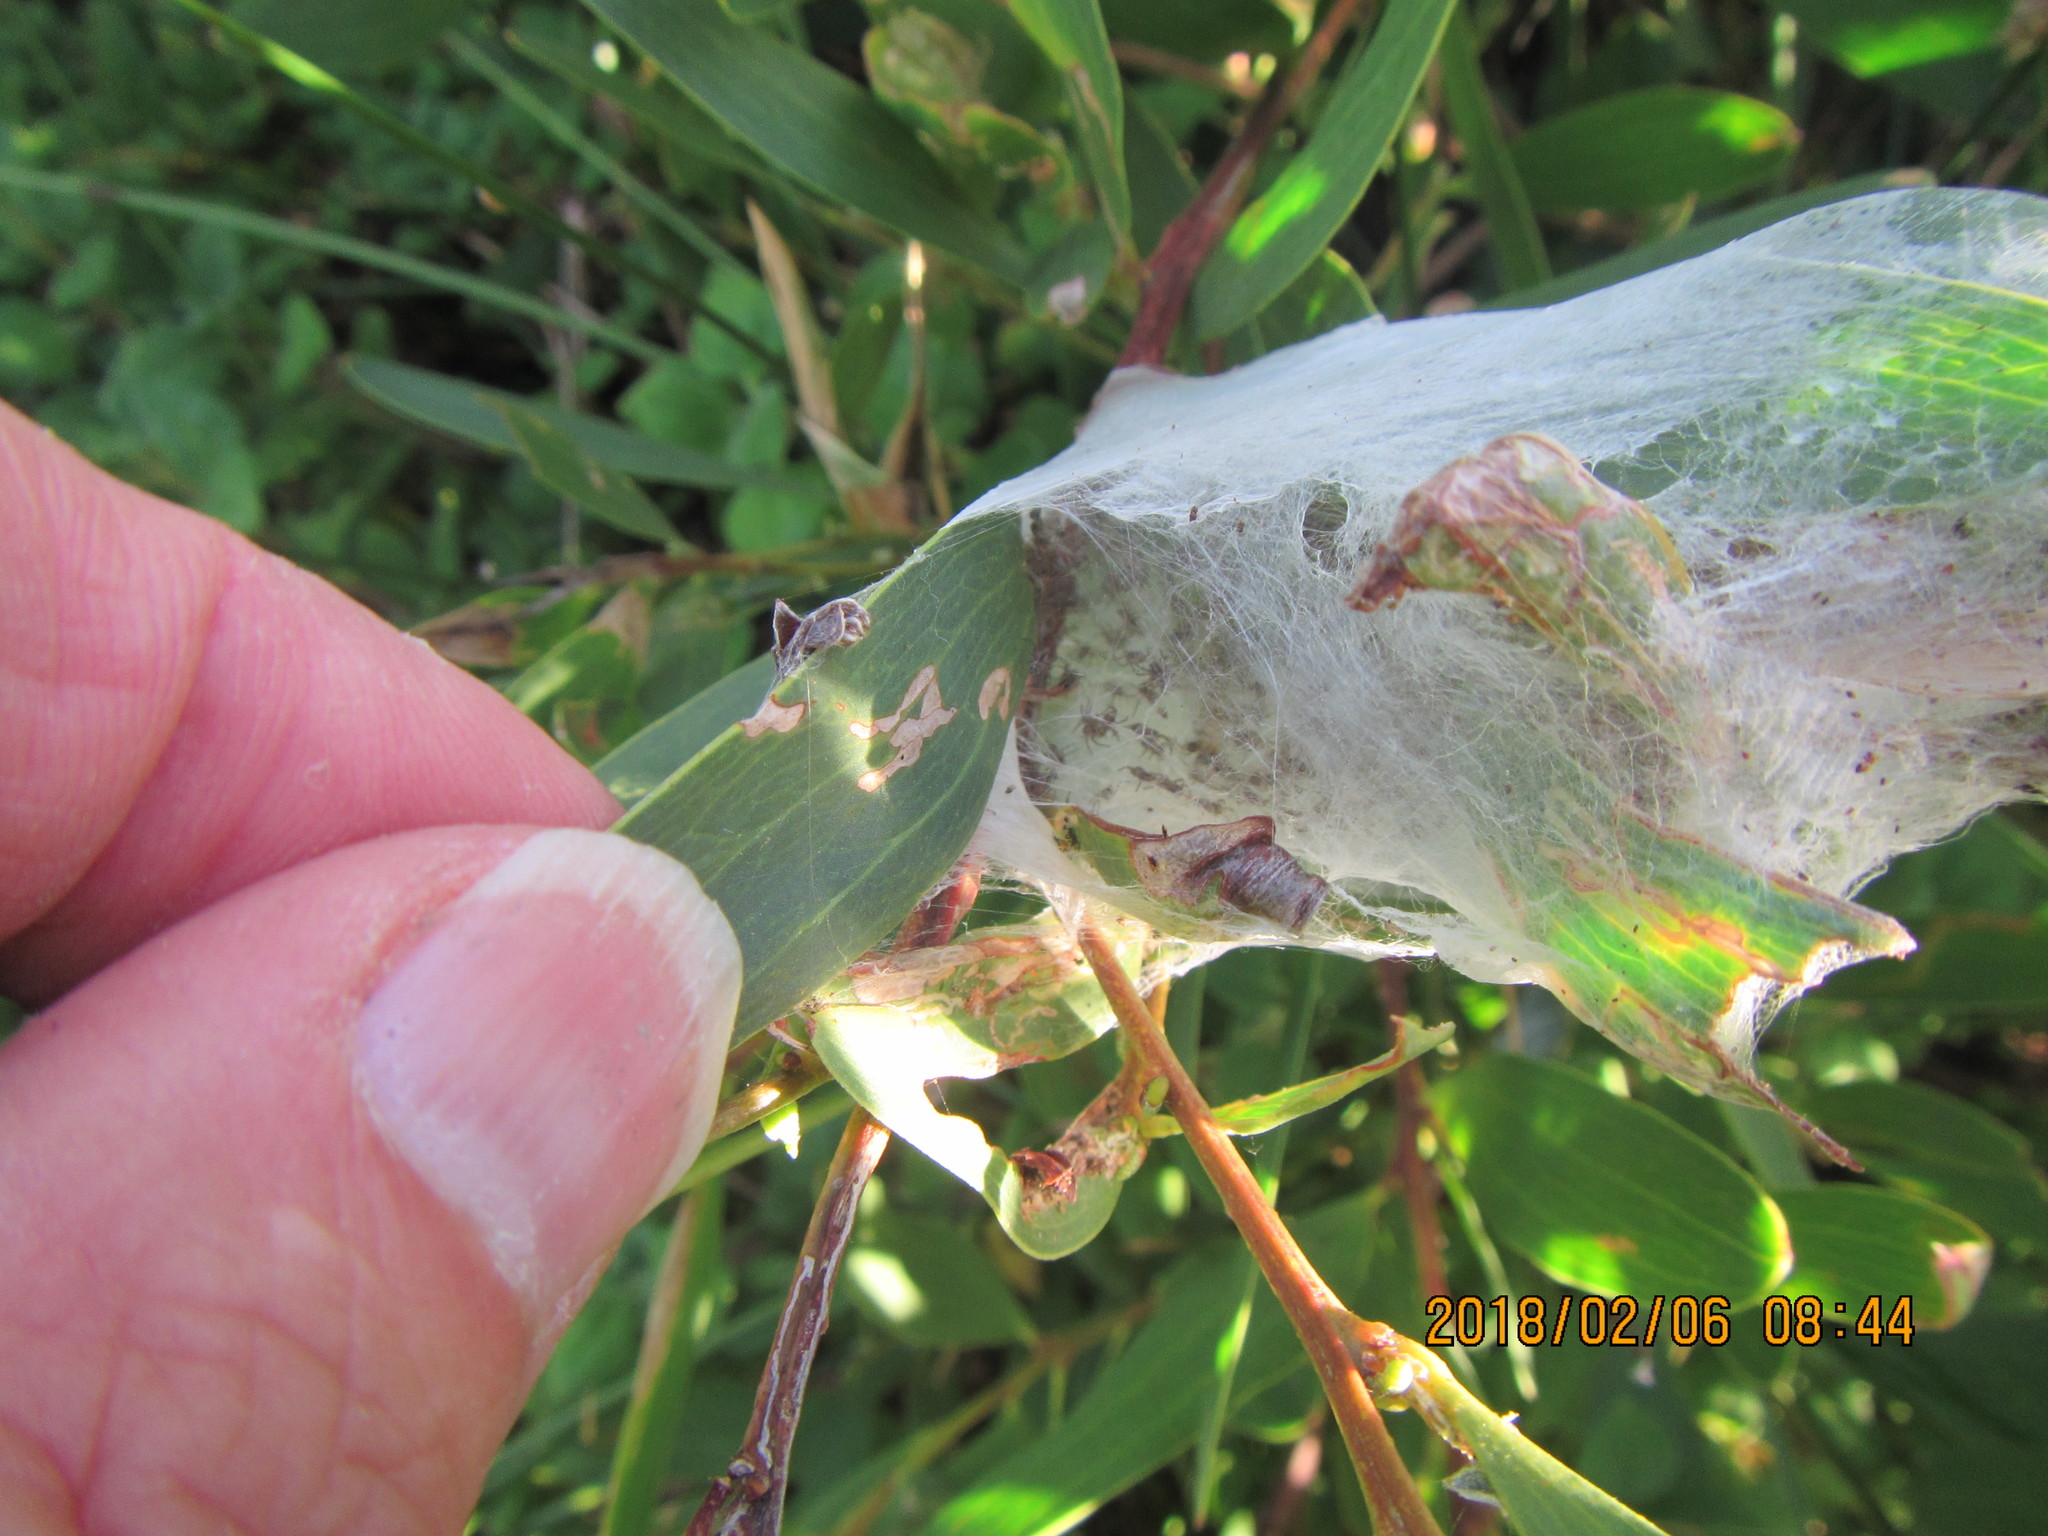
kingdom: Animalia
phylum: Arthropoda
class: Arachnida
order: Araneae
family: Pisauridae
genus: Dolomedes
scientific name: Dolomedes minor
